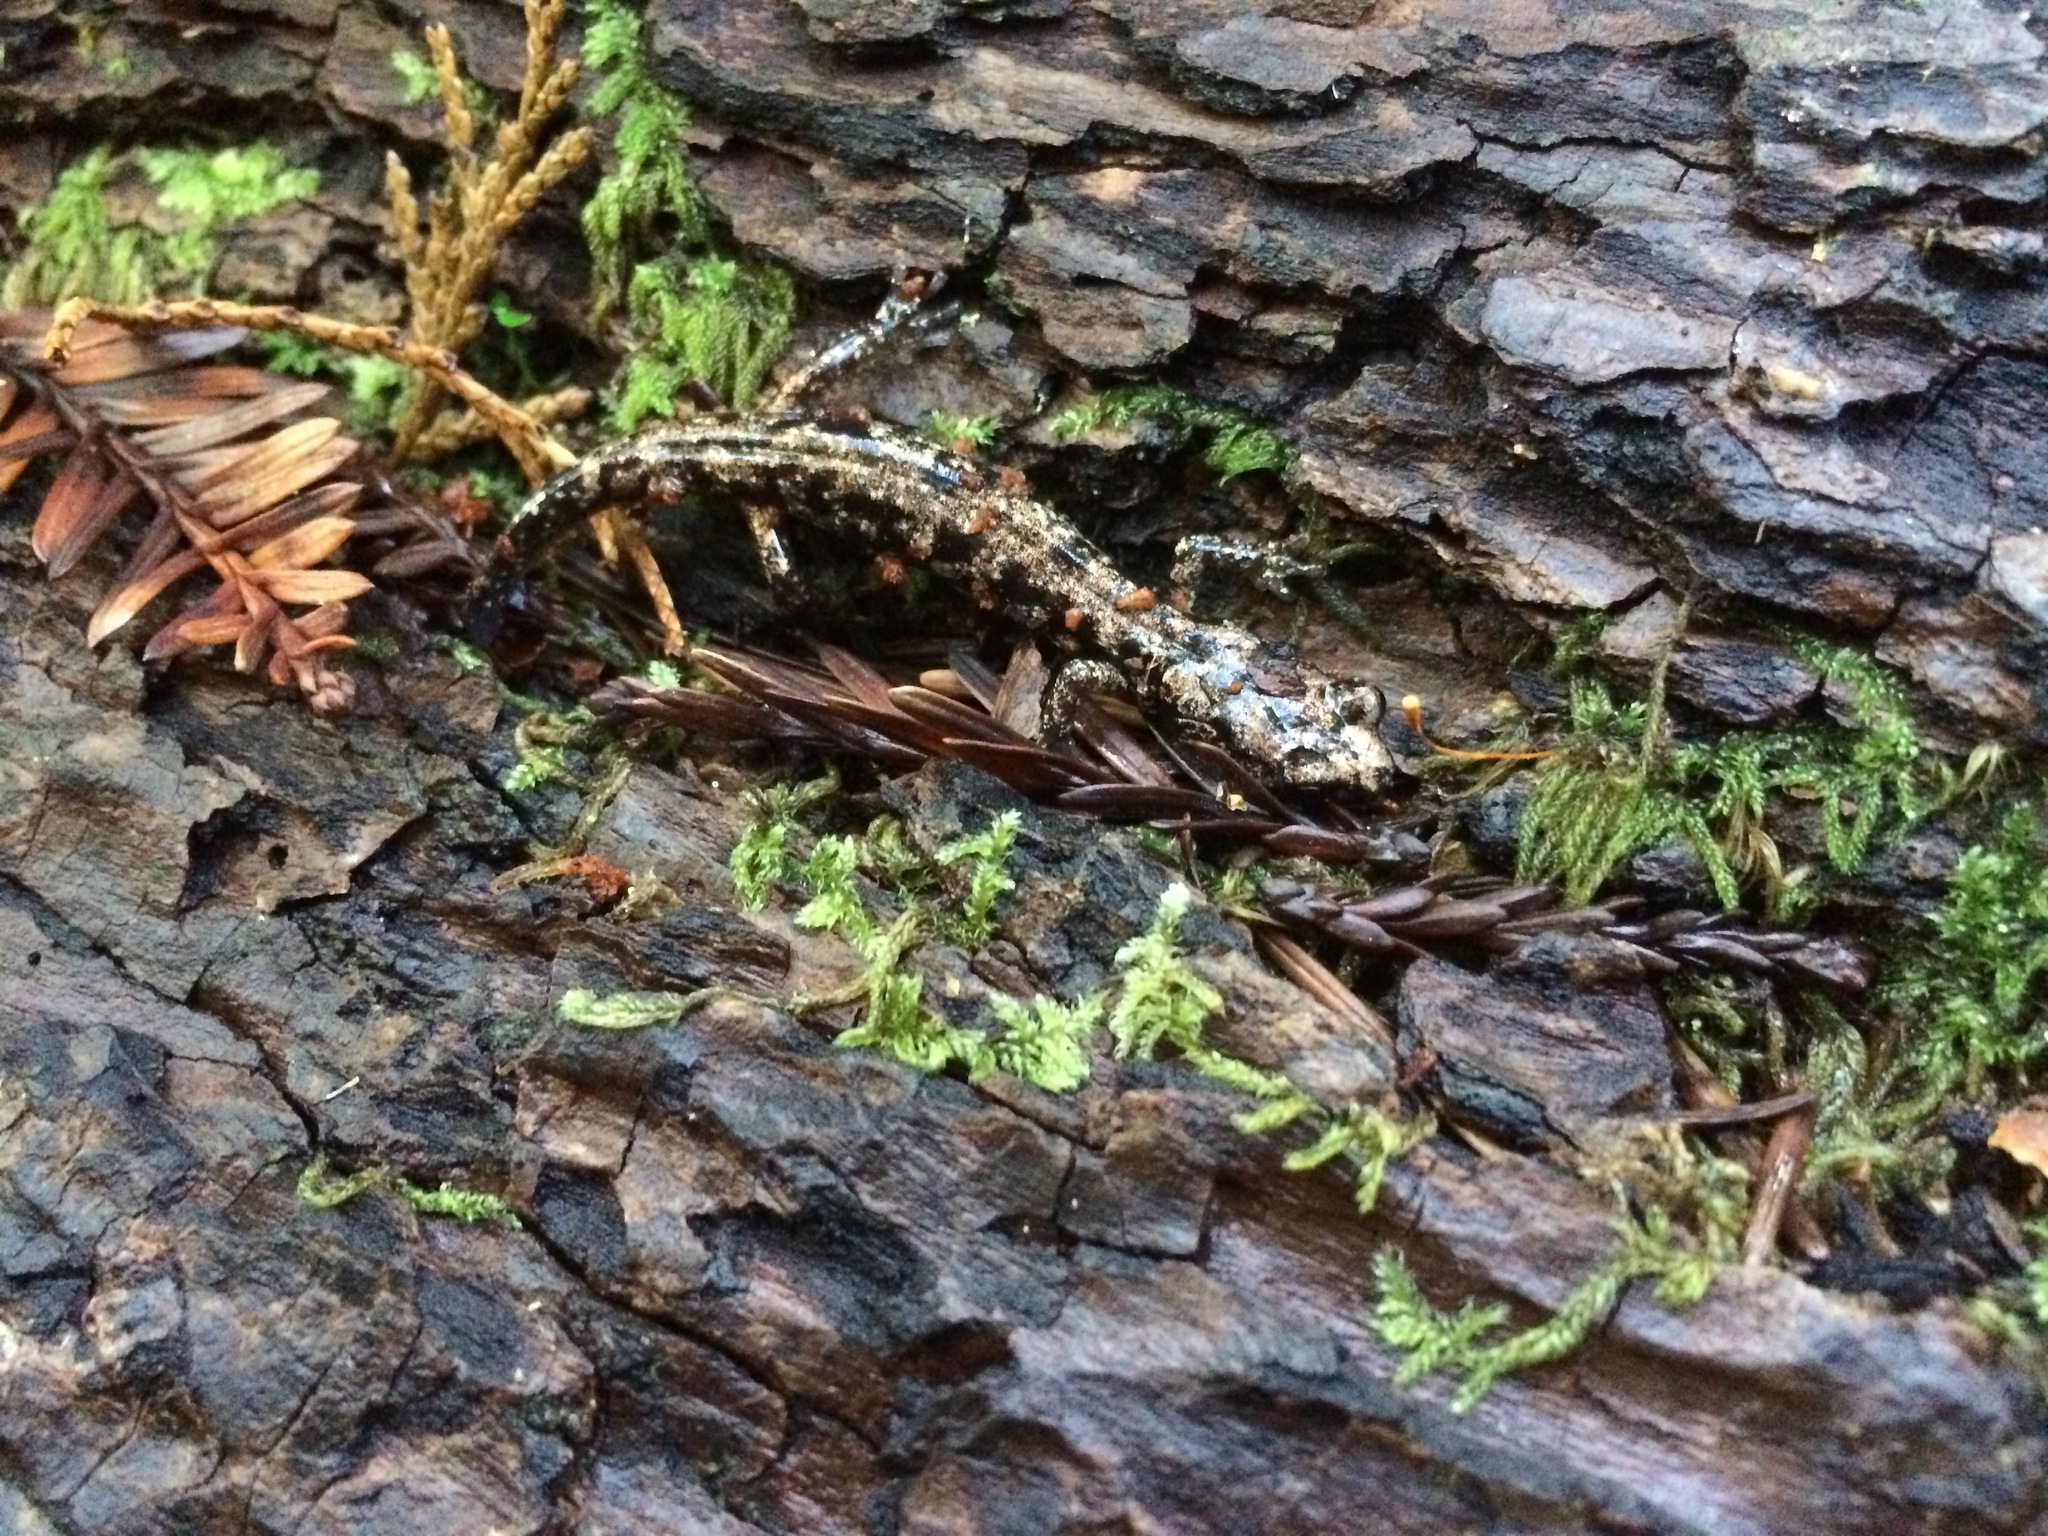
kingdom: Animalia
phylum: Chordata
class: Amphibia
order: Caudata
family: Plethodontidae
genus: Aneides
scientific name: Aneides vagrans
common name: Wandering salamander
